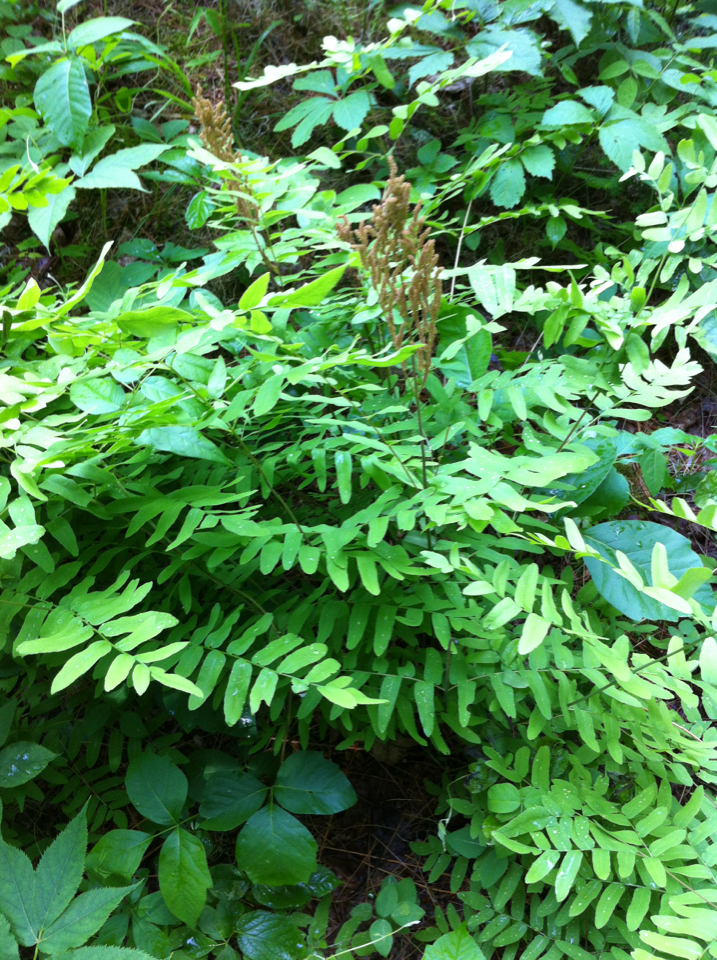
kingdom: Plantae
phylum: Tracheophyta
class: Polypodiopsida
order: Osmundales
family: Osmundaceae
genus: Osmunda
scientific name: Osmunda spectabilis
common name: American royal fern
